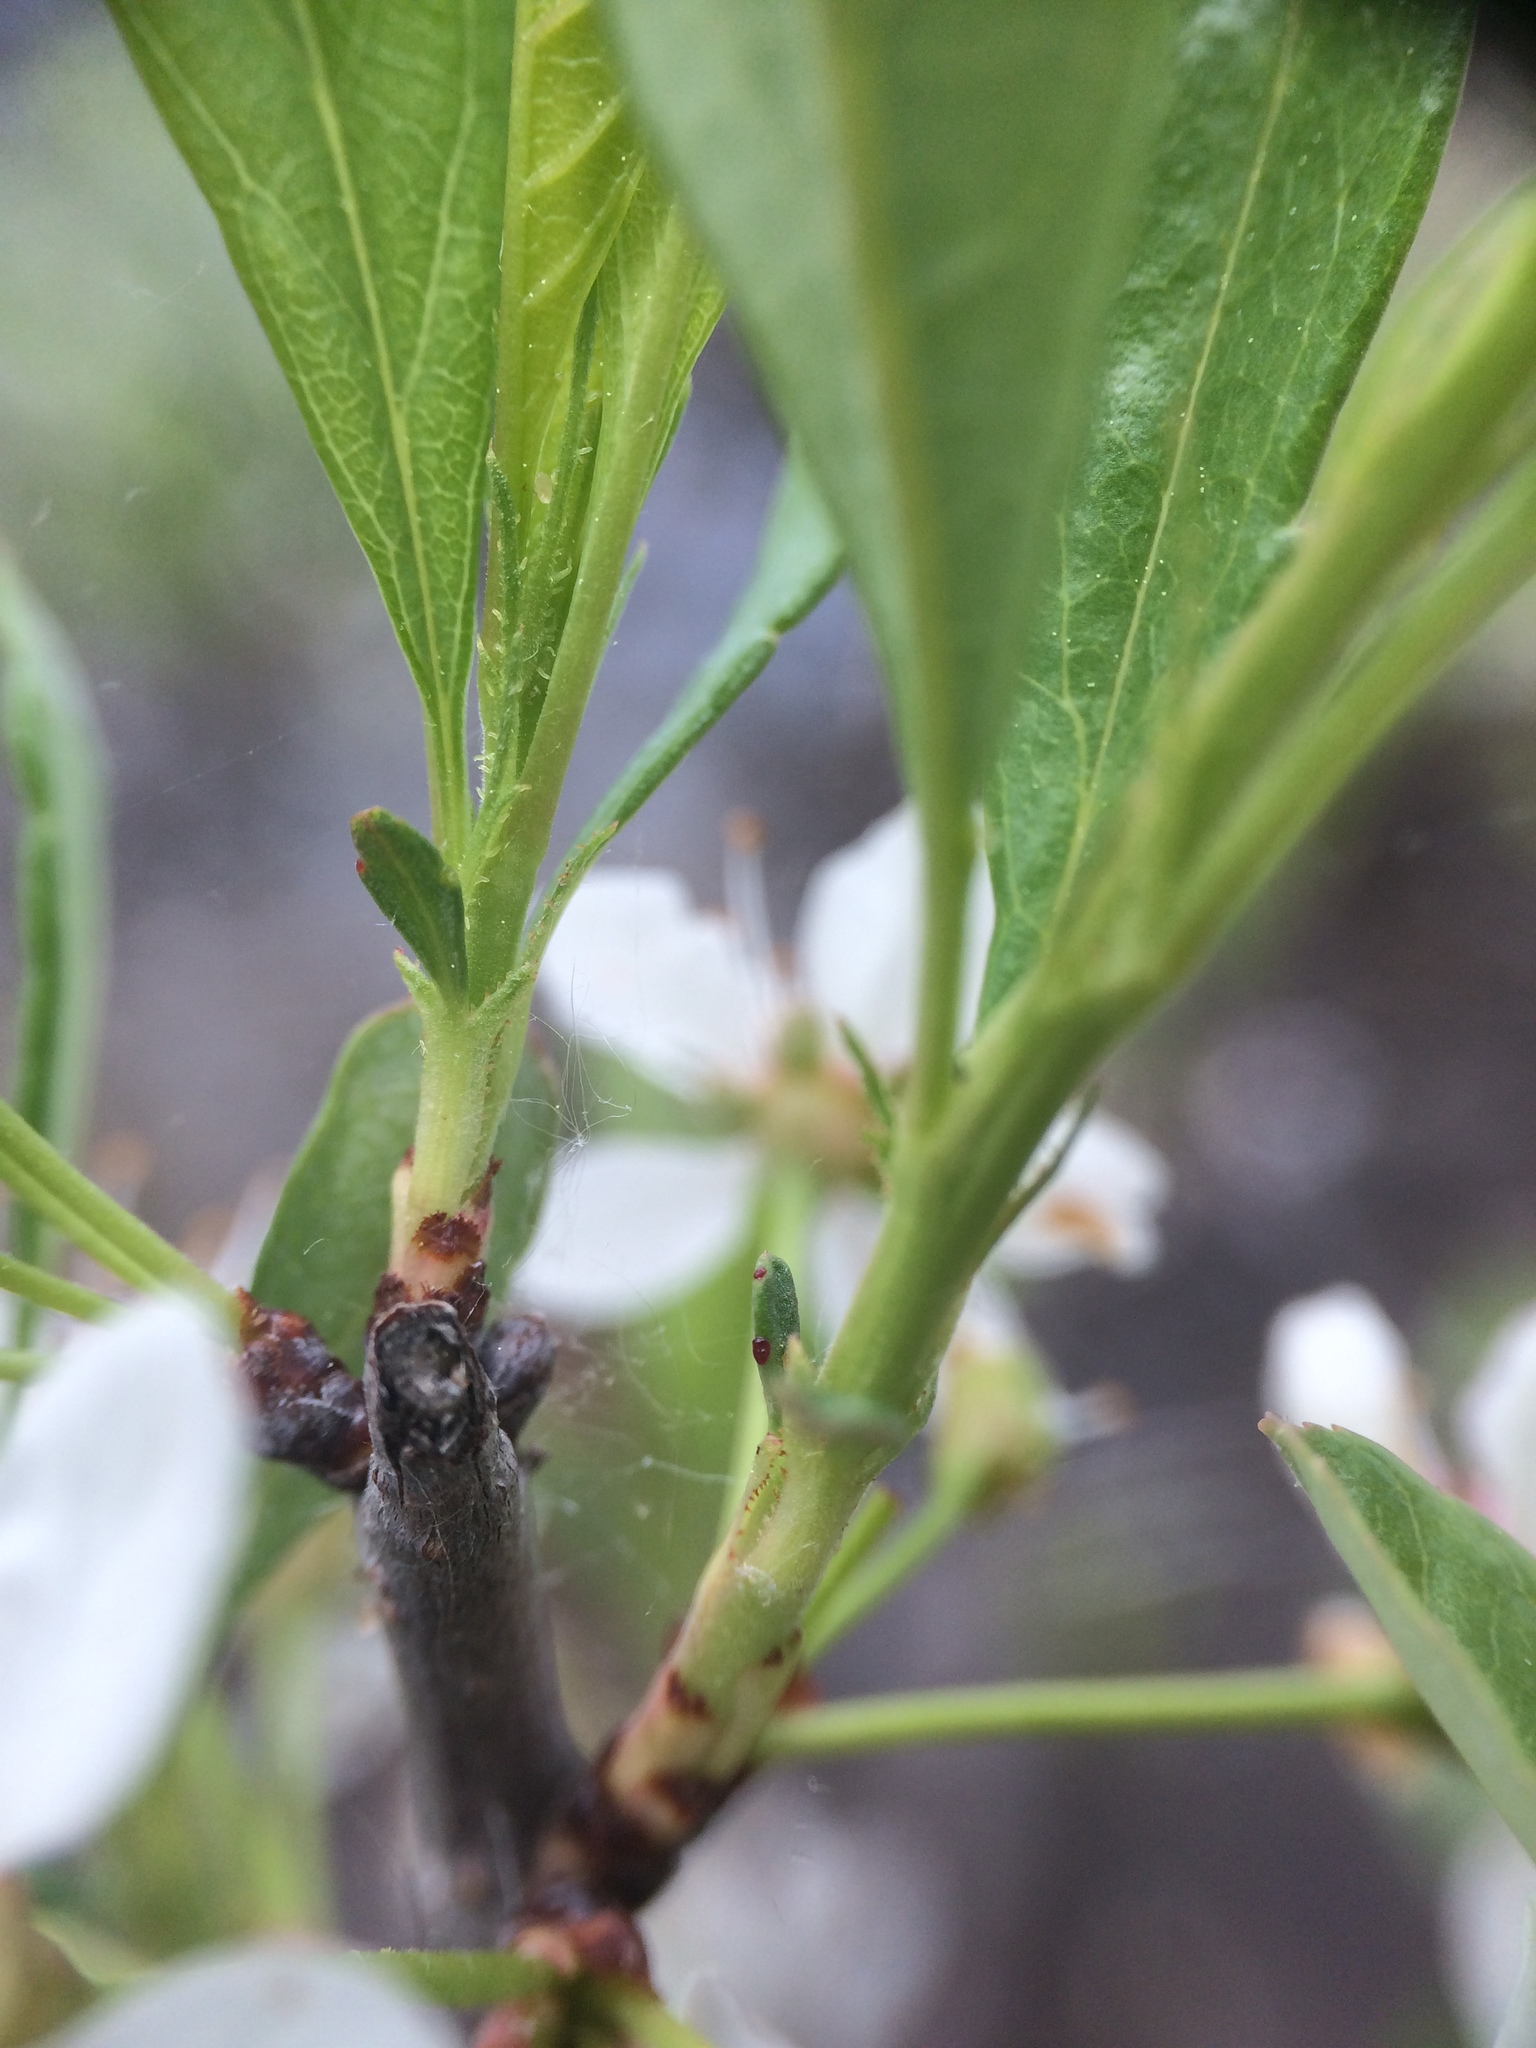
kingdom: Plantae
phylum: Tracheophyta
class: Magnoliopsida
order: Rosales
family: Rosaceae
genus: Prunus
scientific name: Prunus pumila
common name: Dwarf cherry
